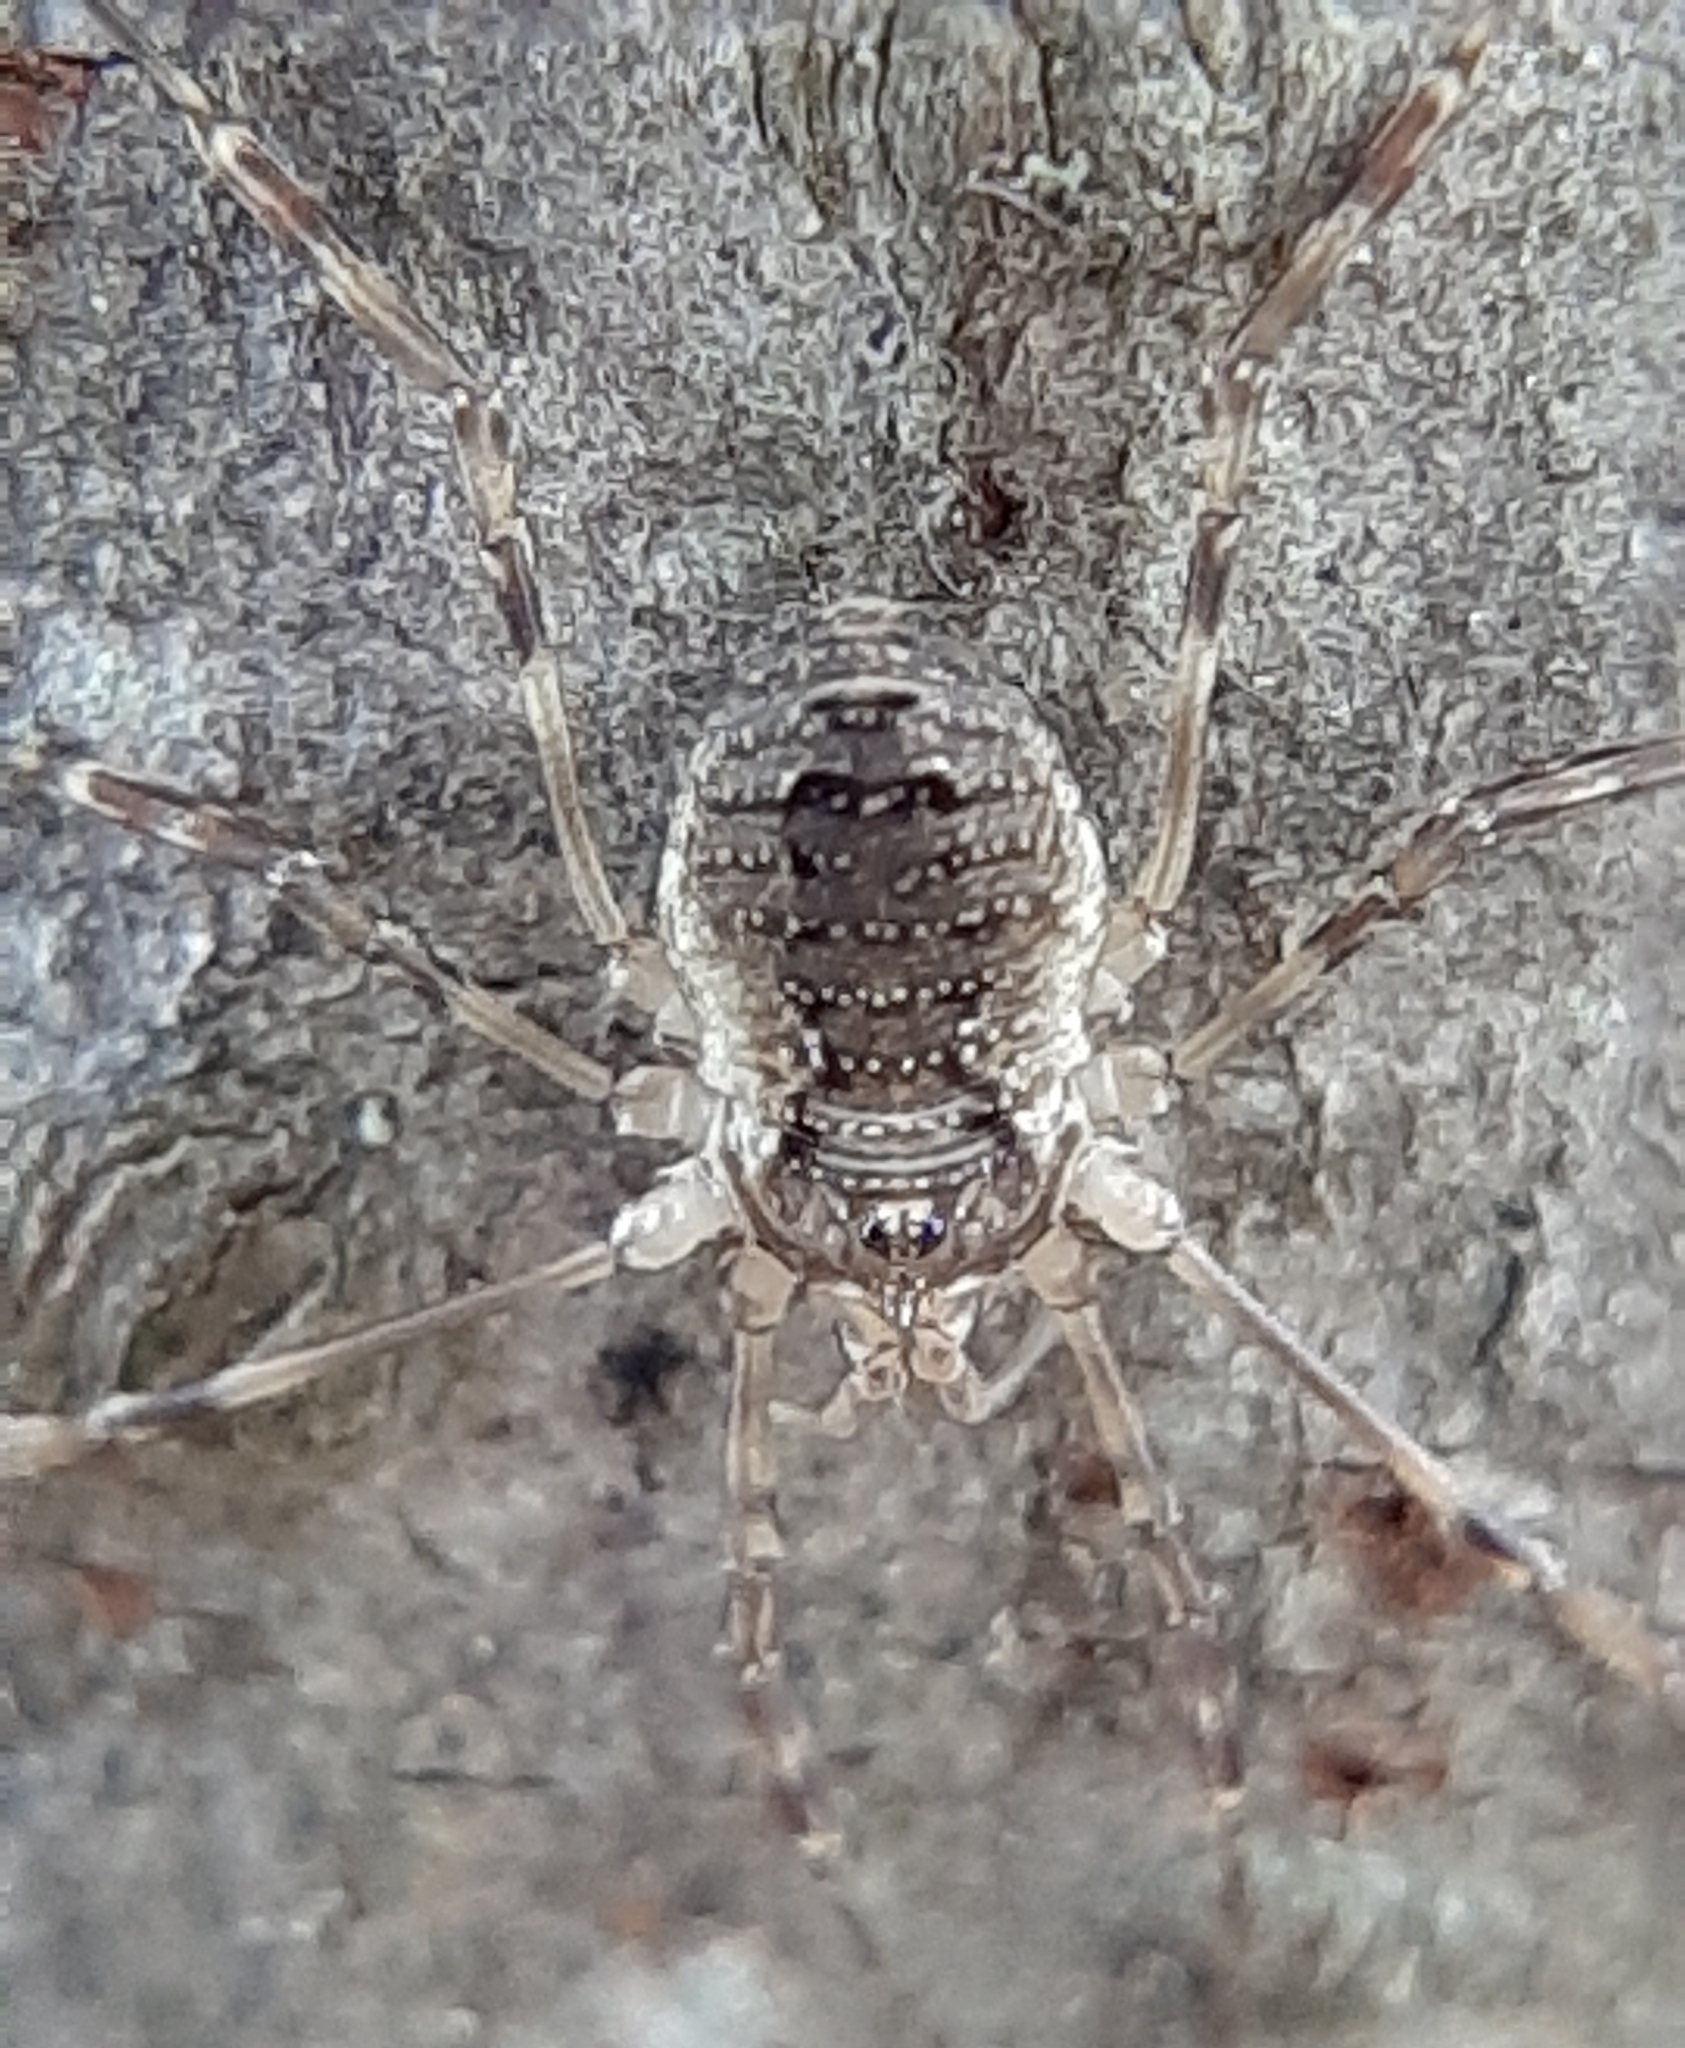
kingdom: Animalia
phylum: Arthropoda
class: Arachnida
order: Opiliones
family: Phalangiidae
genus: Oligolophus
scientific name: Oligolophus hansenii
